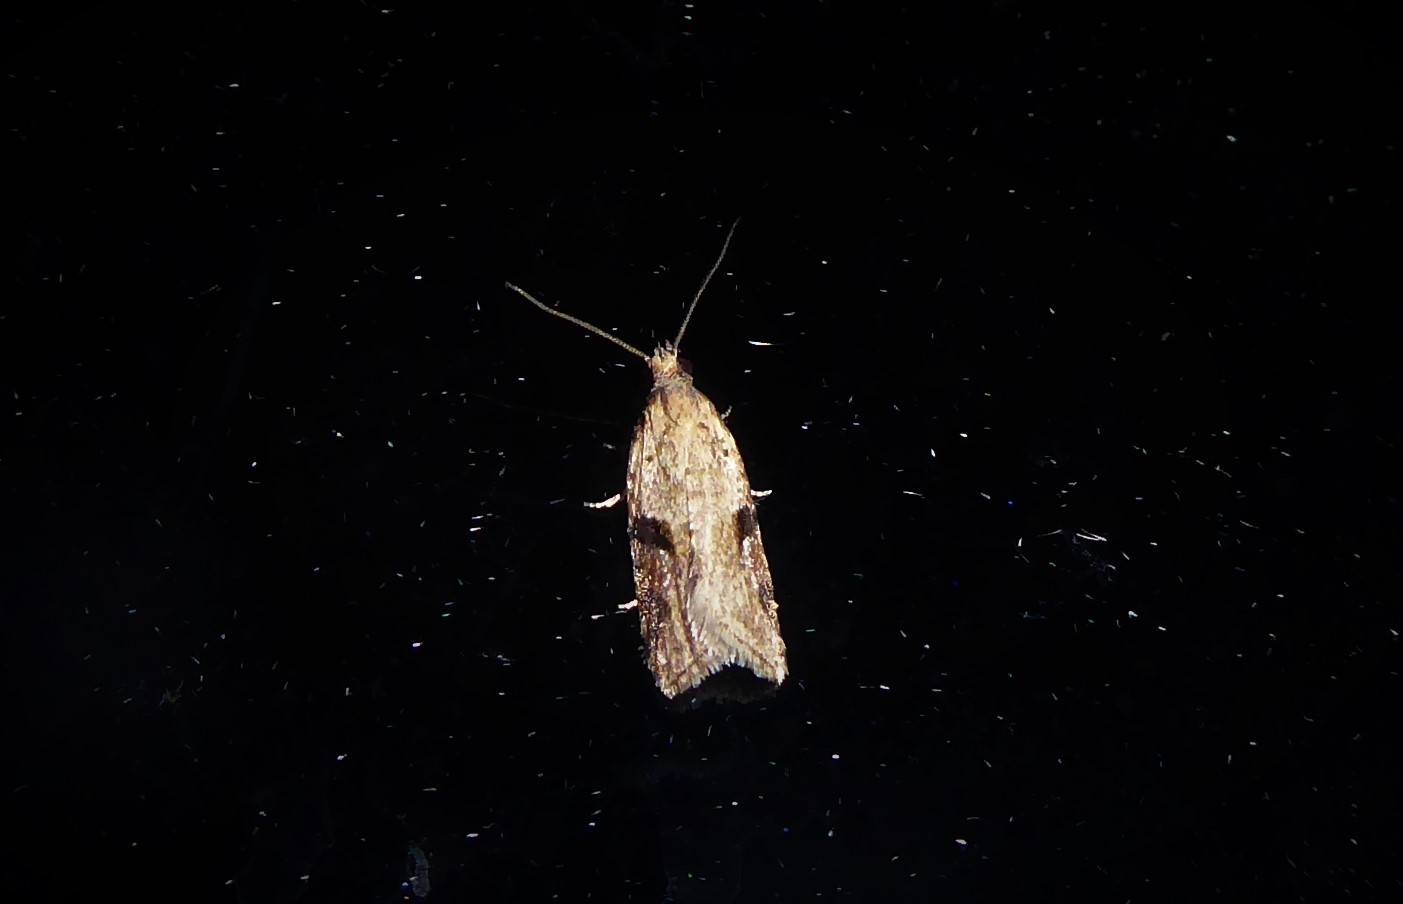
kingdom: Animalia
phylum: Arthropoda
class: Insecta
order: Lepidoptera
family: Tortricidae
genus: Capua
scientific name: Capua semiferana
